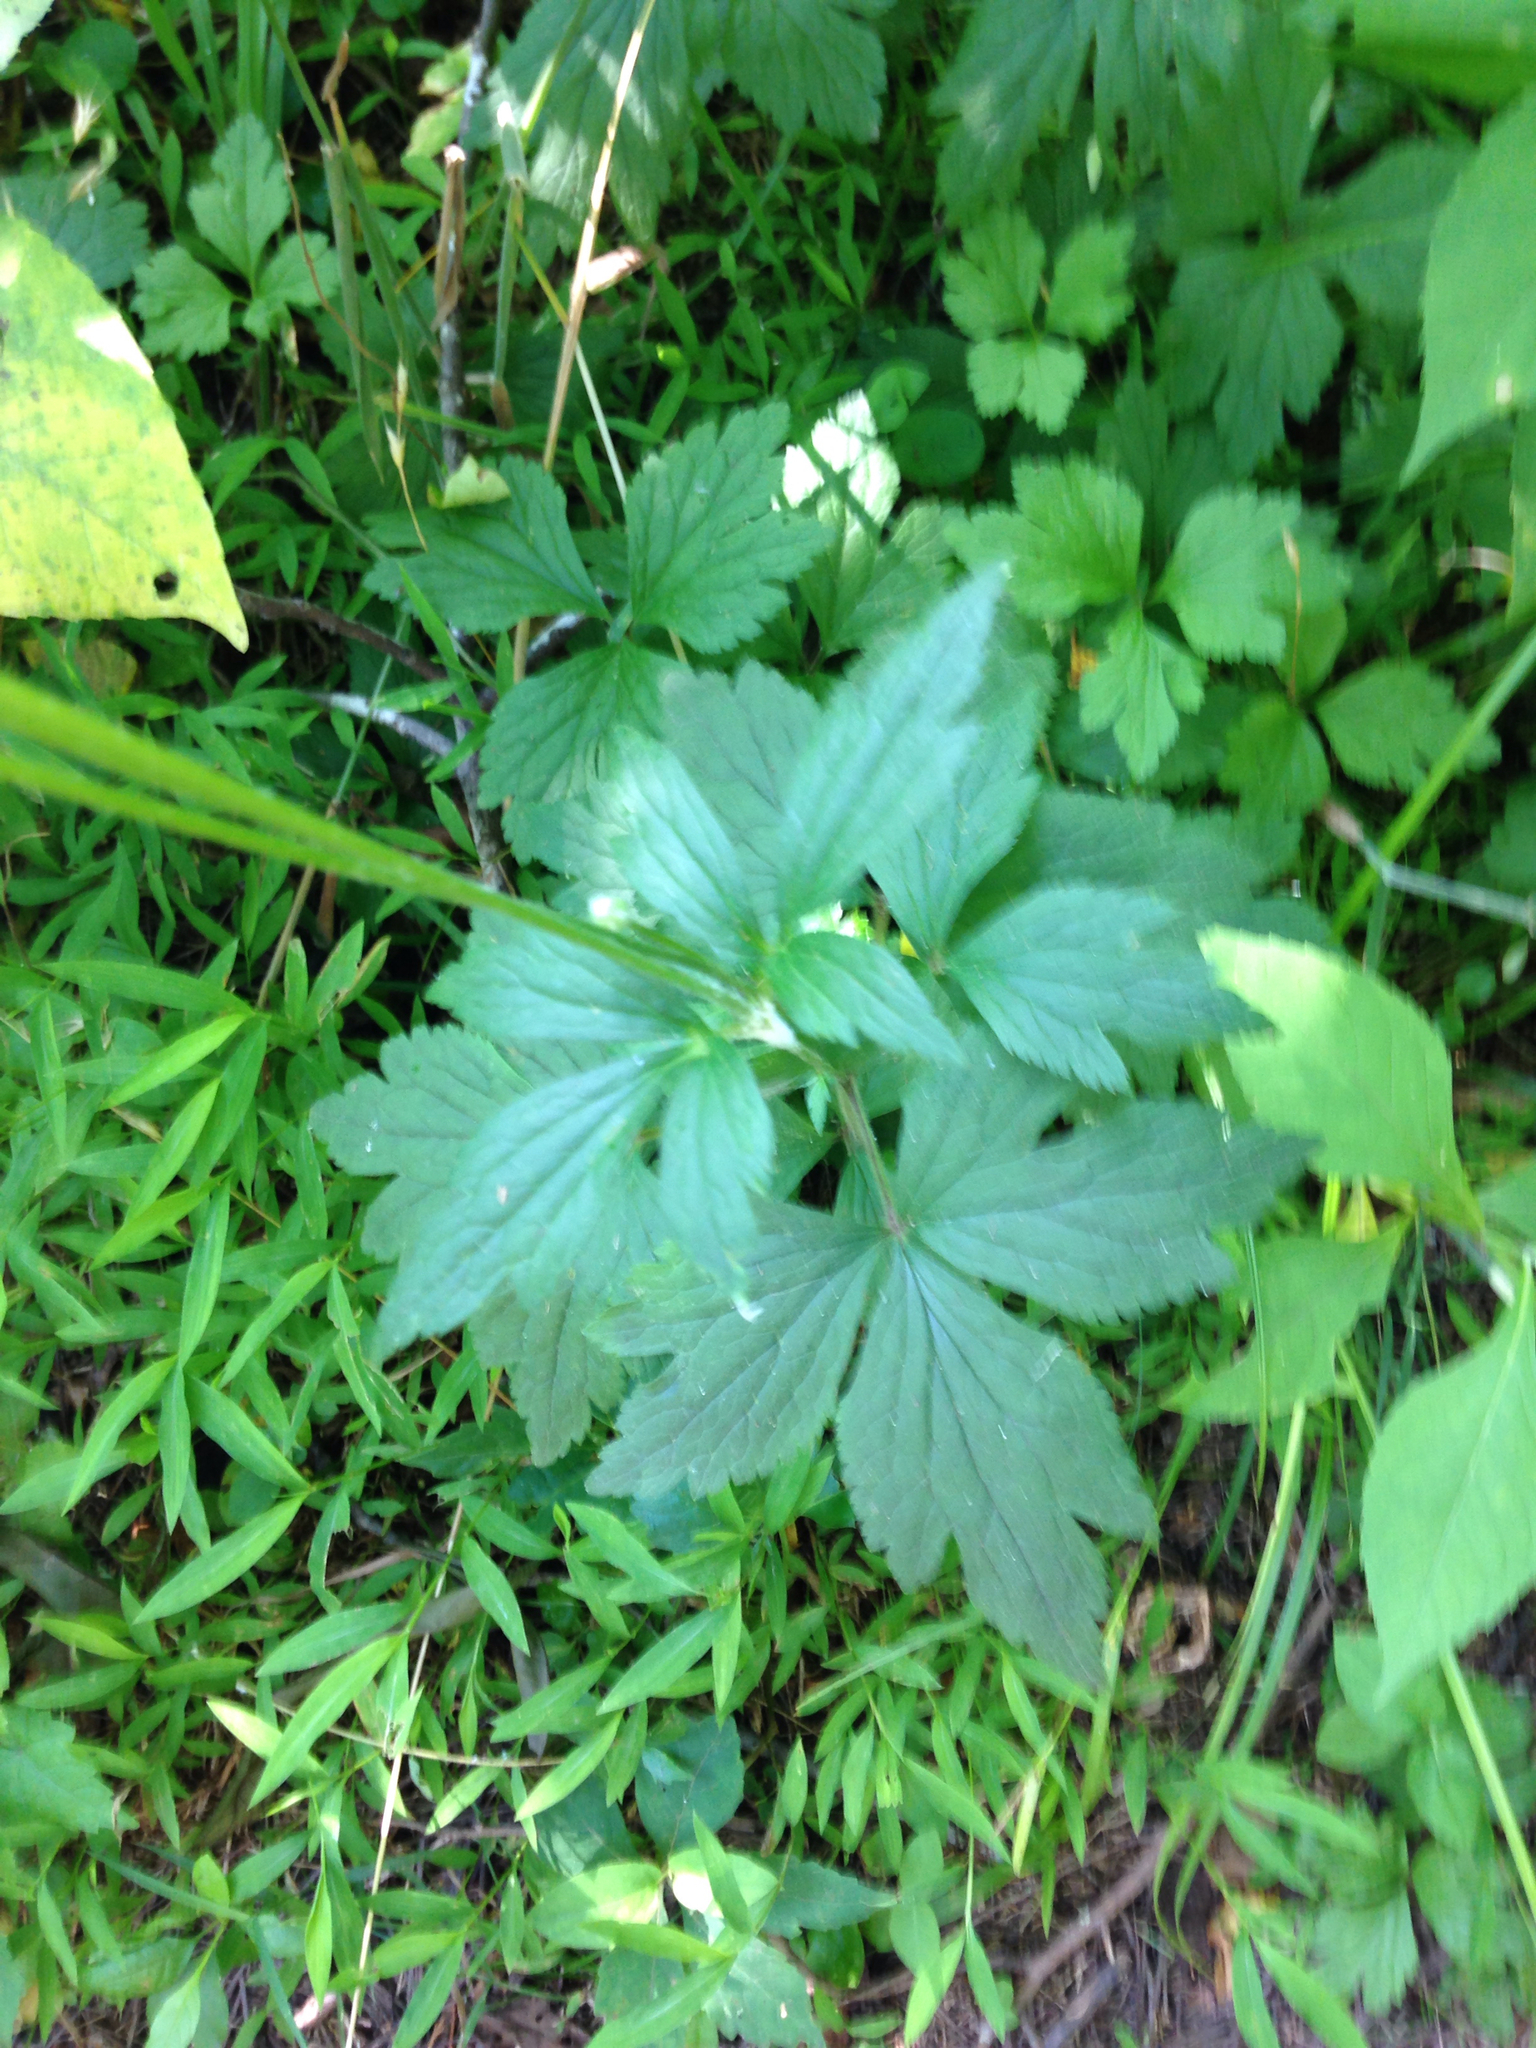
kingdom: Plantae
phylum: Tracheophyta
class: Magnoliopsida
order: Ranunculales
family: Ranunculaceae
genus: Anemone
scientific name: Anemone virginiana
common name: Tall anemone
